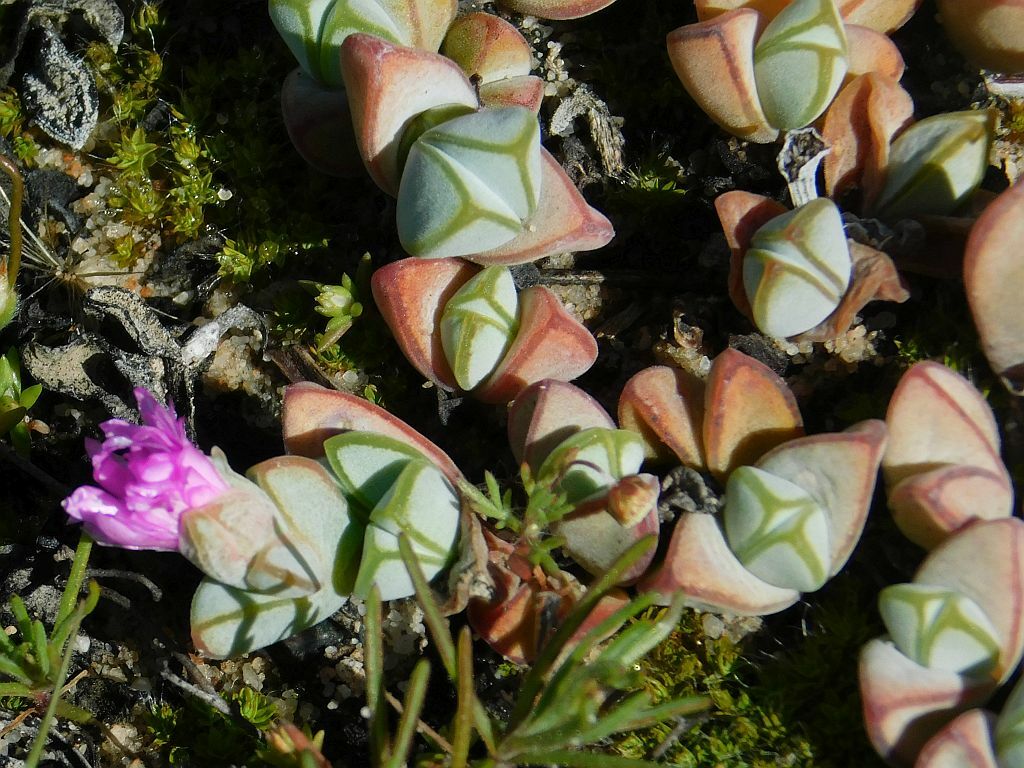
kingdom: Plantae
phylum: Tracheophyta
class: Magnoliopsida
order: Caryophyllales
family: Aizoaceae
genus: Braunsia
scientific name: Braunsia maximiliani
